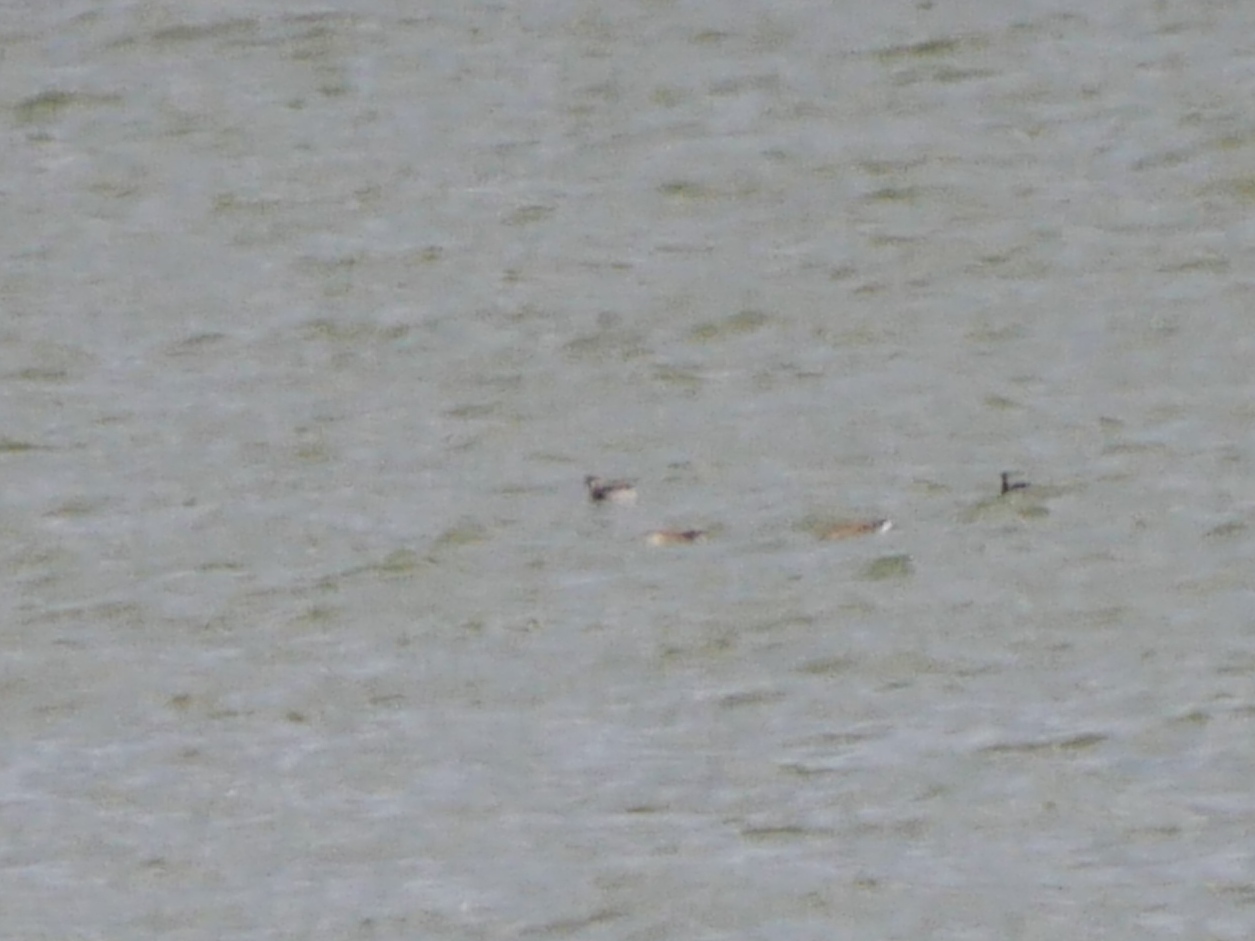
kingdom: Animalia
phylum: Chordata
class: Aves
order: Podicipediformes
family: Podicipedidae
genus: Tachybaptus
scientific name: Tachybaptus ruficollis
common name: Little grebe
